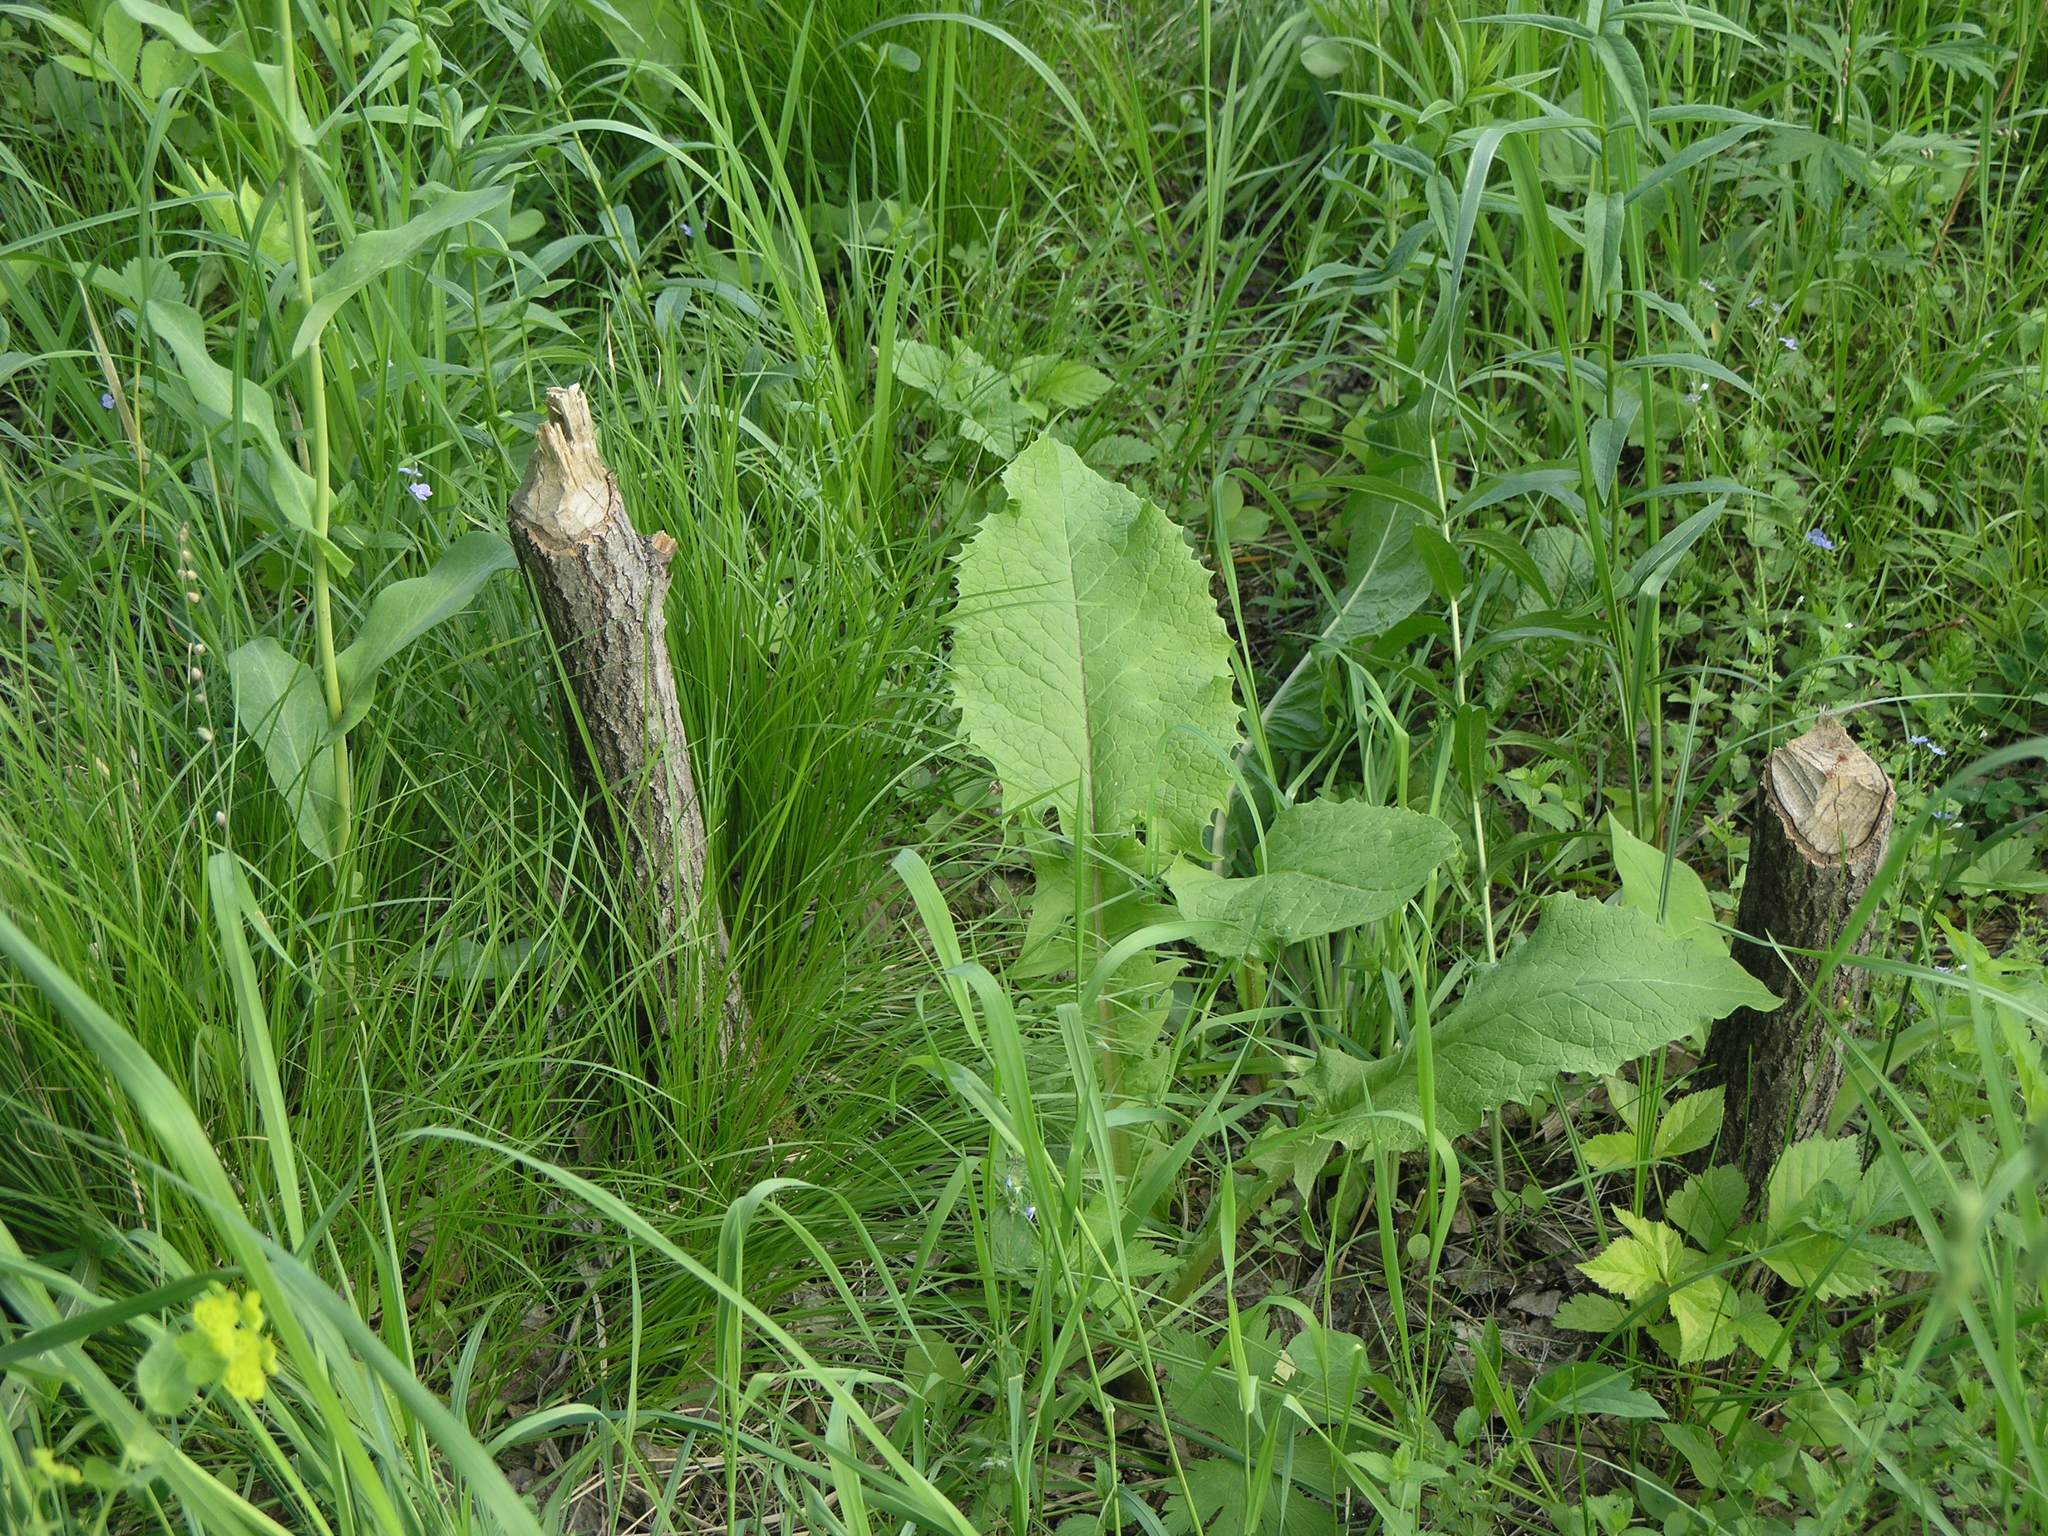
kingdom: Animalia
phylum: Chordata
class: Mammalia
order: Rodentia
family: Castoridae
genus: Castor
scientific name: Castor fiber
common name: Eurasian beaver
